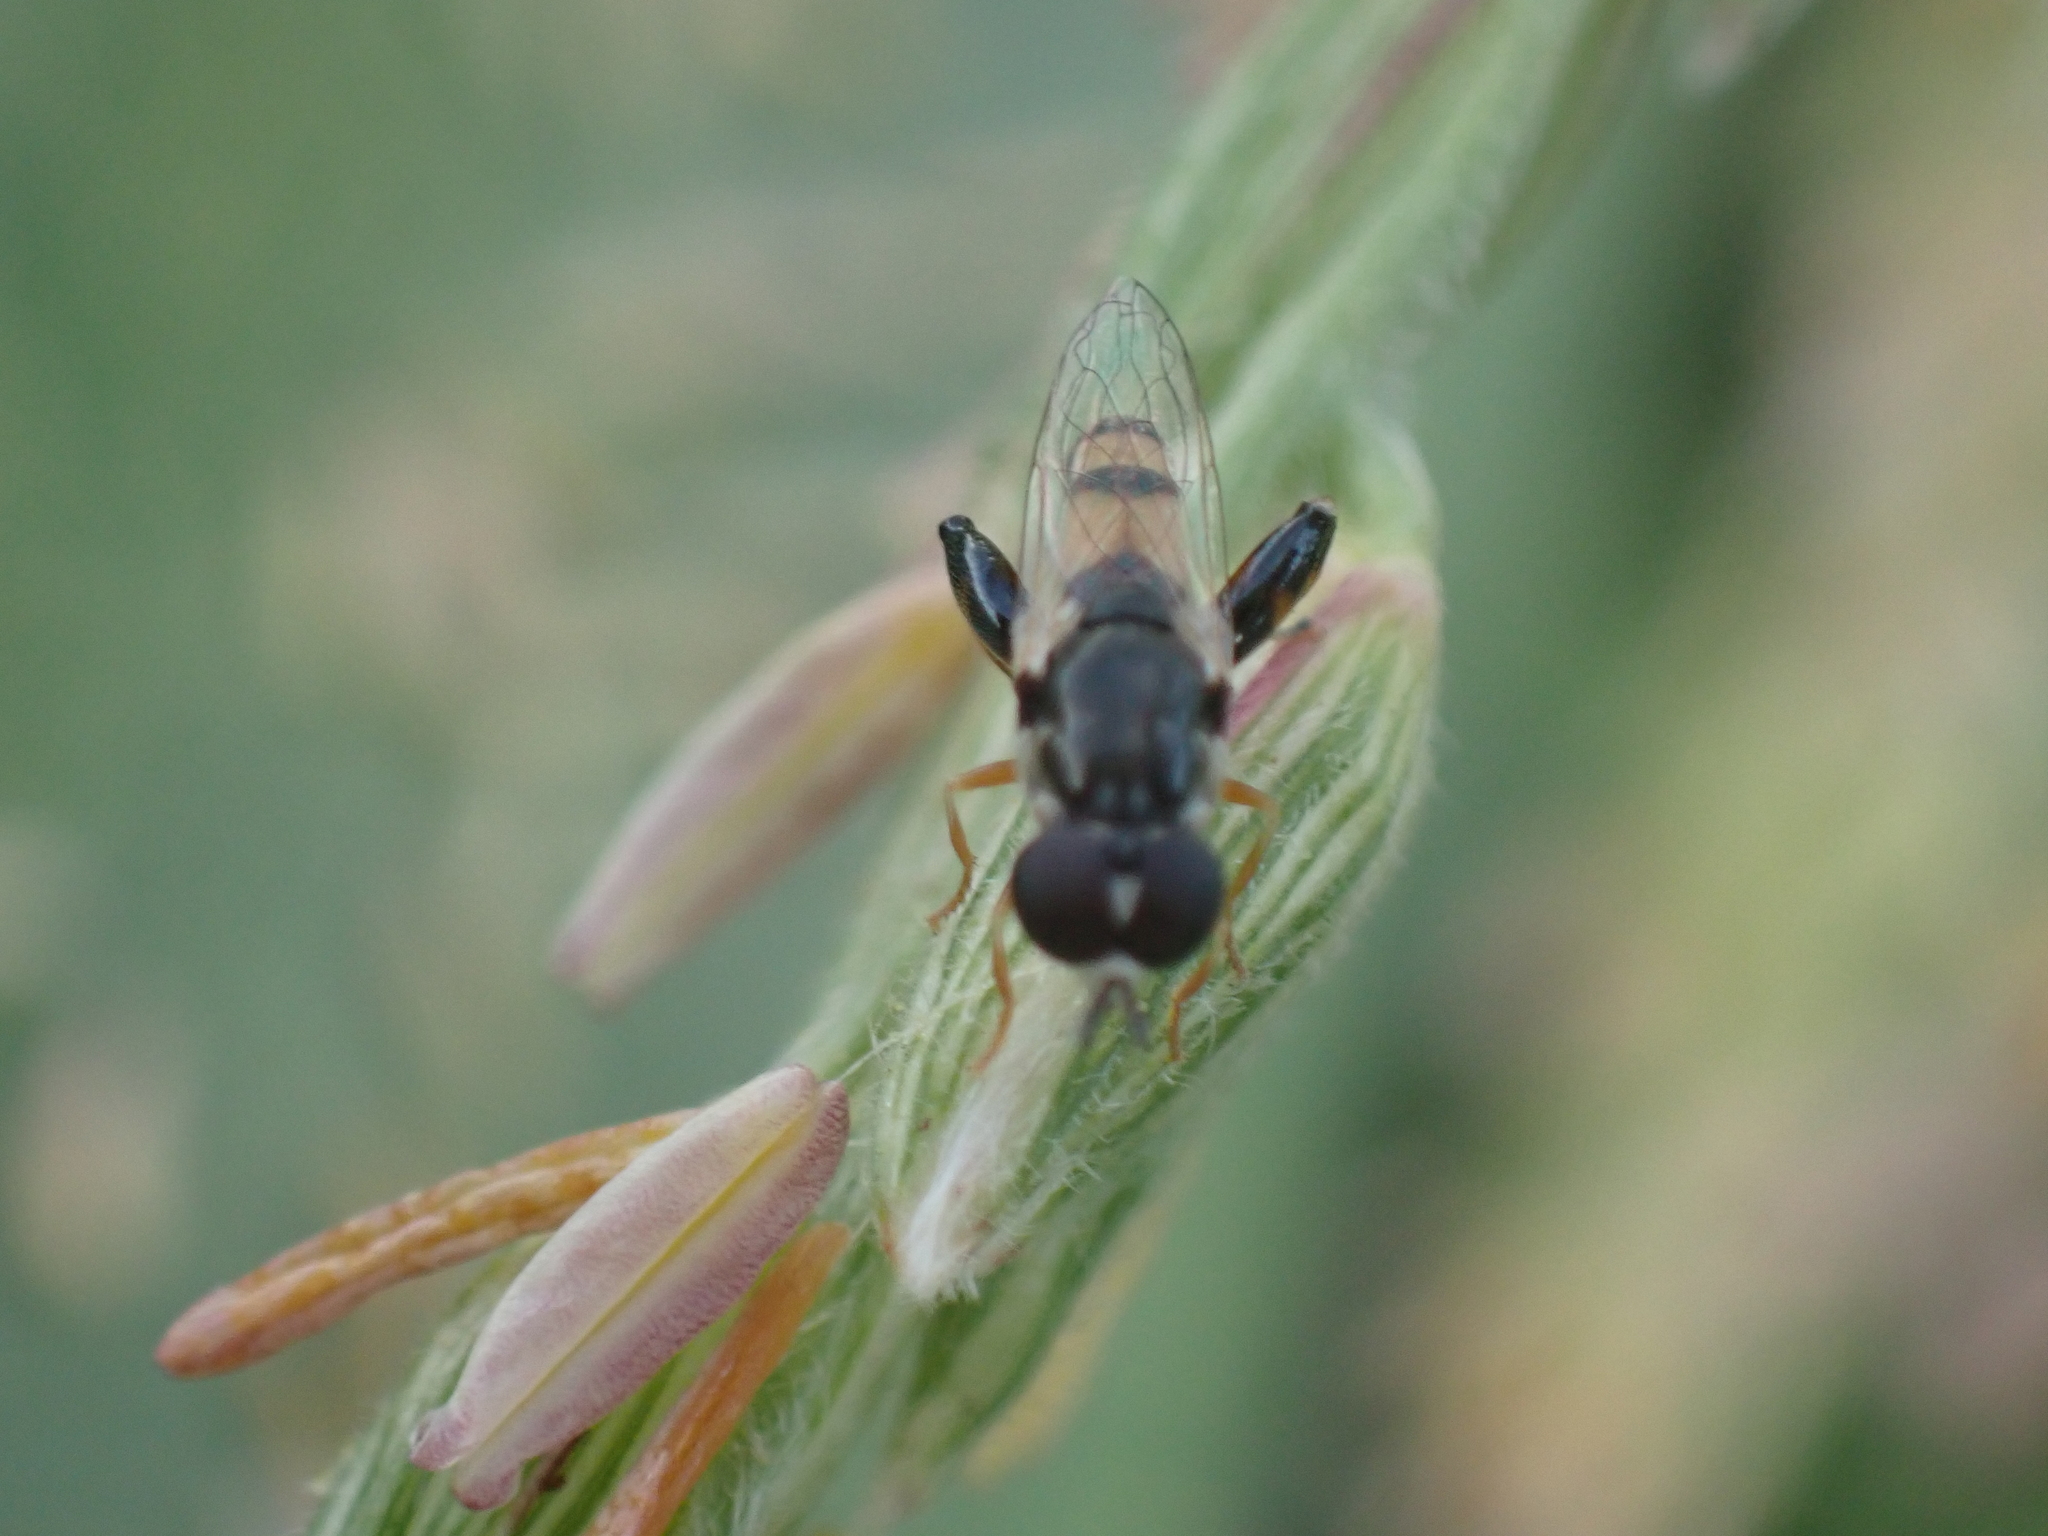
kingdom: Animalia
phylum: Arthropoda
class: Insecta
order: Diptera
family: Syrphidae
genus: Syritta
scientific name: Syritta flaviventris
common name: Syrphid fly
